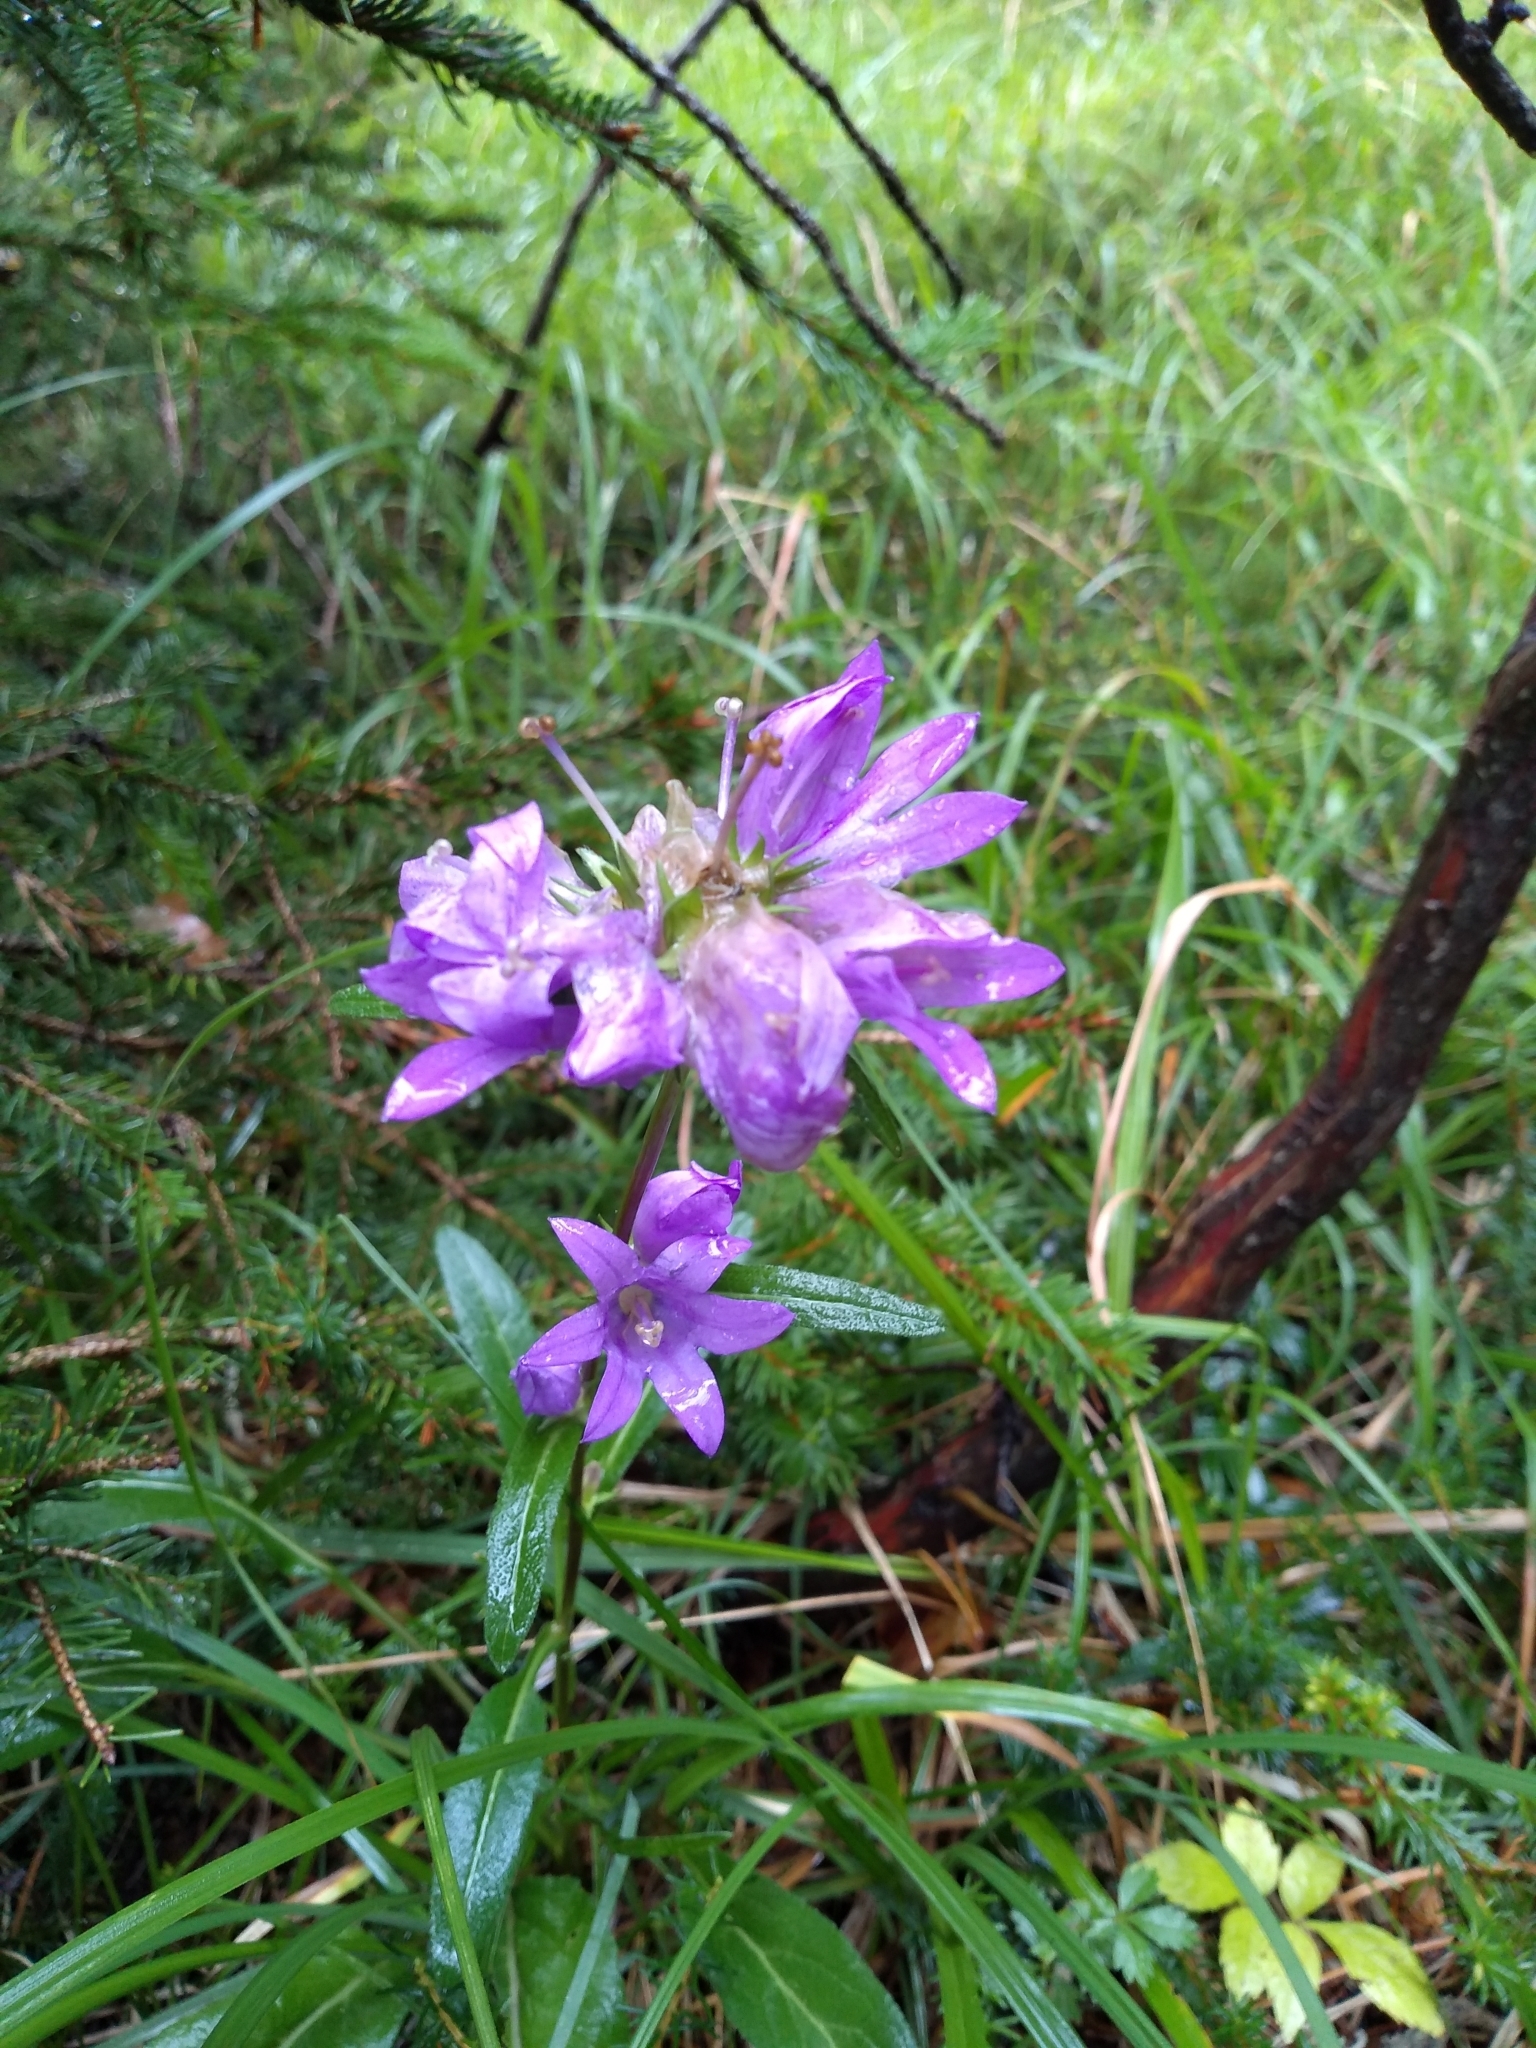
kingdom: Plantae
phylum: Tracheophyta
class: Magnoliopsida
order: Asterales
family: Campanulaceae
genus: Campanula
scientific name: Campanula glomerata
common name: Clustered bellflower
